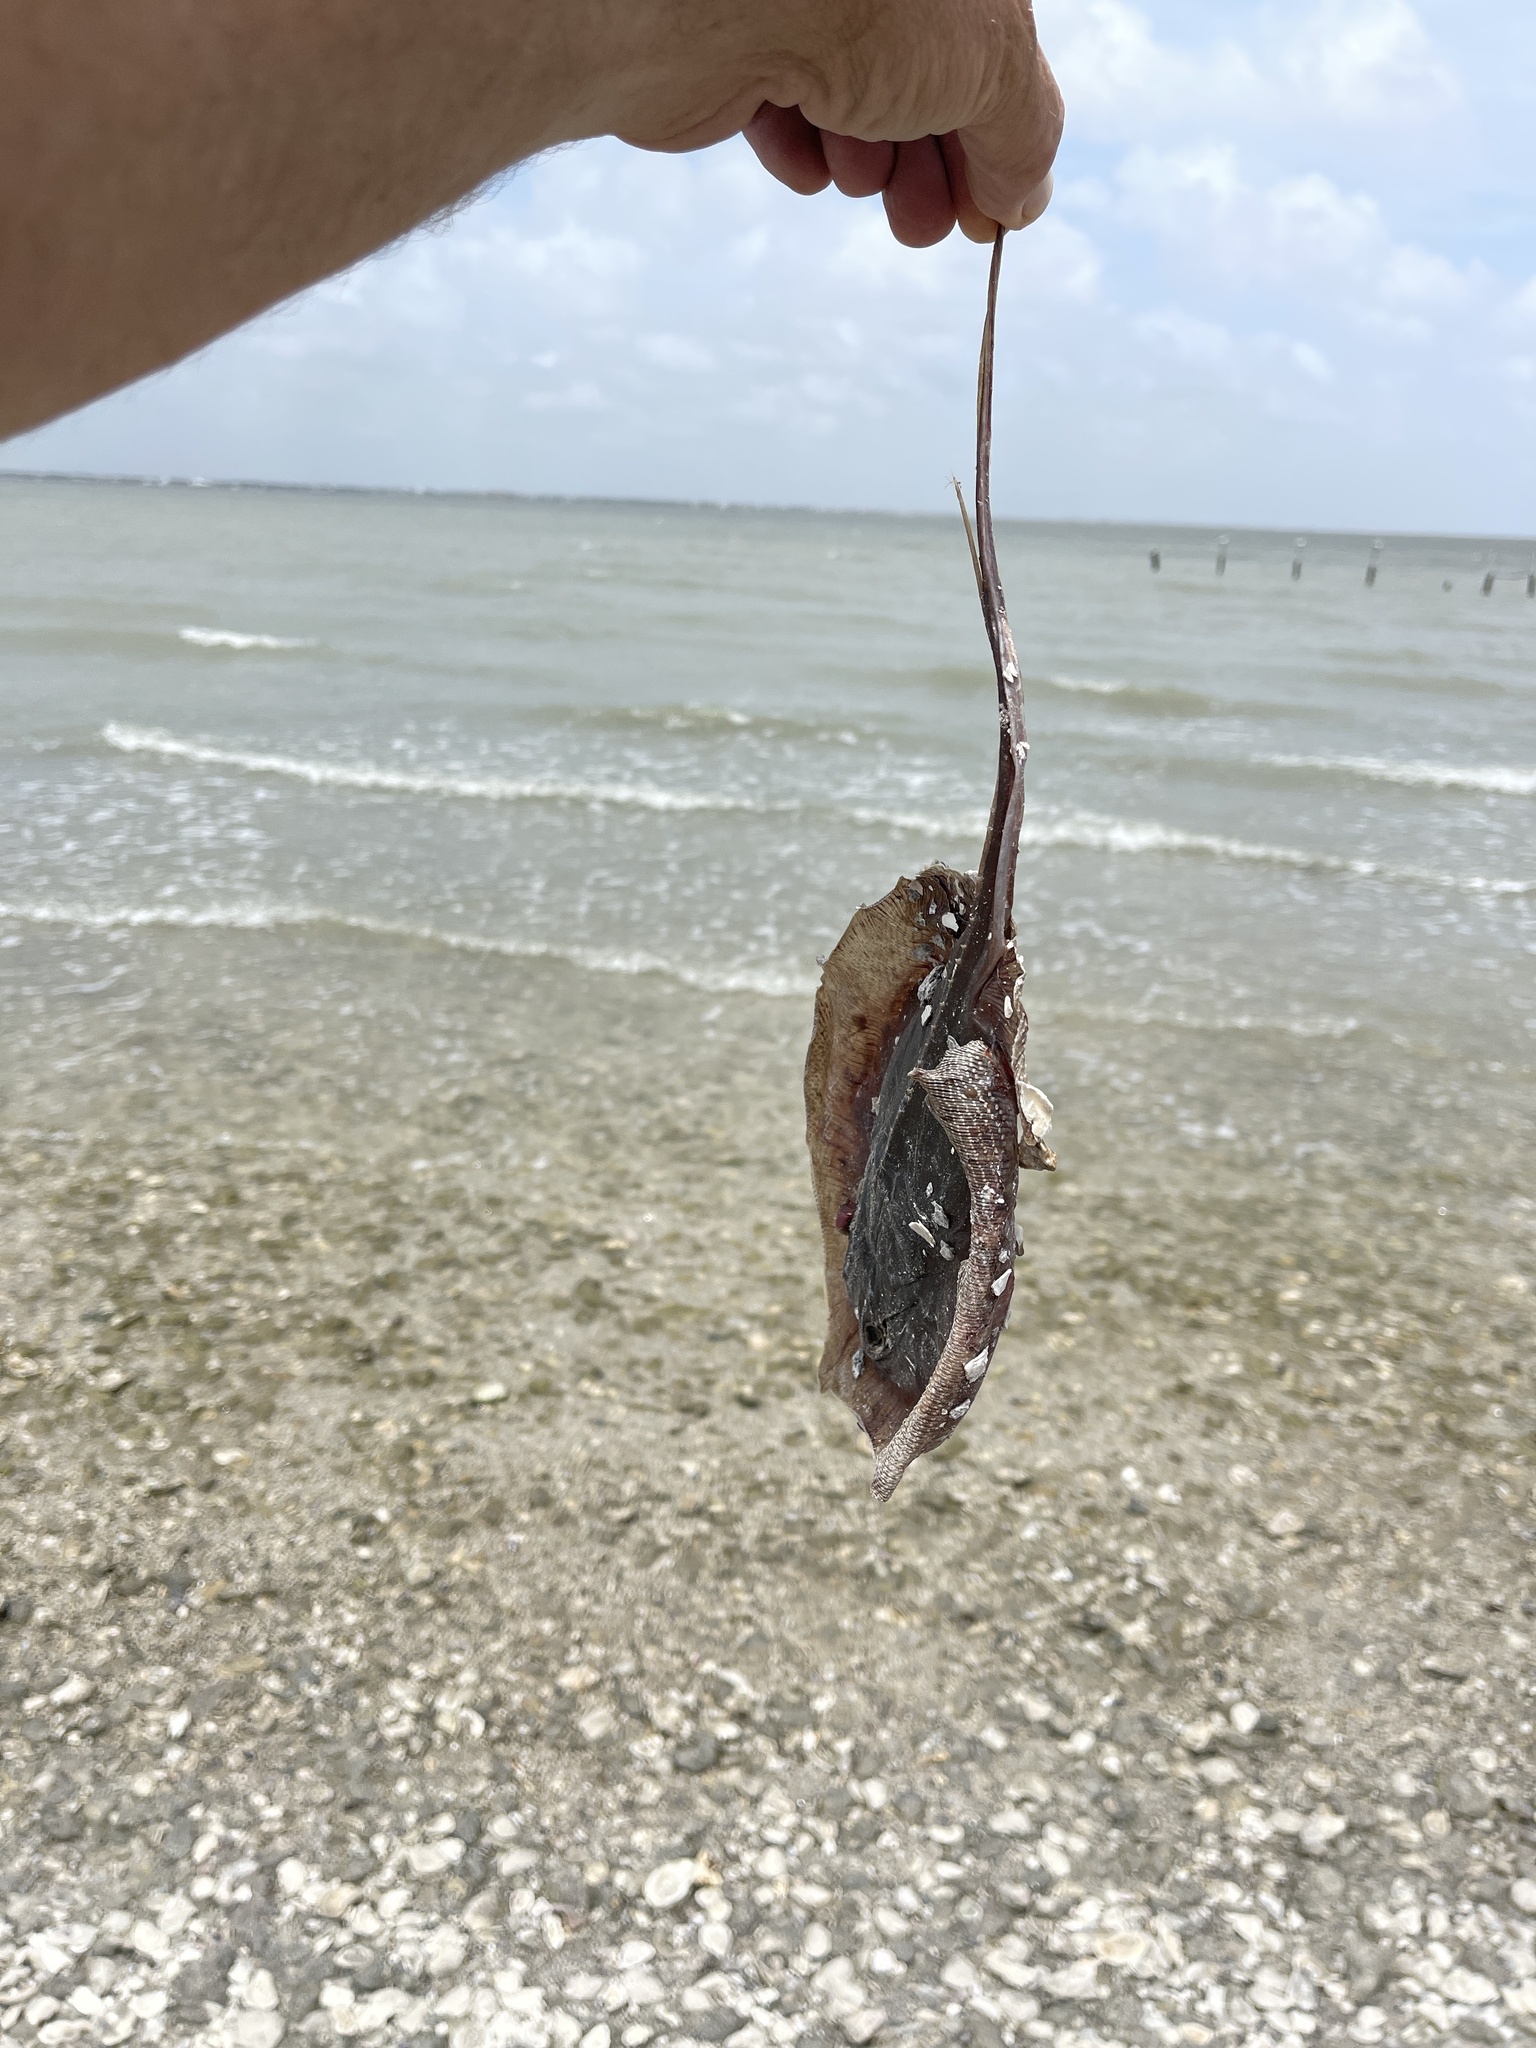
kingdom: Animalia
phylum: Chordata
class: Elasmobranchii
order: Myliobatiformes
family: Dasyatidae
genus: Hypanus
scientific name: Hypanus sabinus
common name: Atlantic stingray
